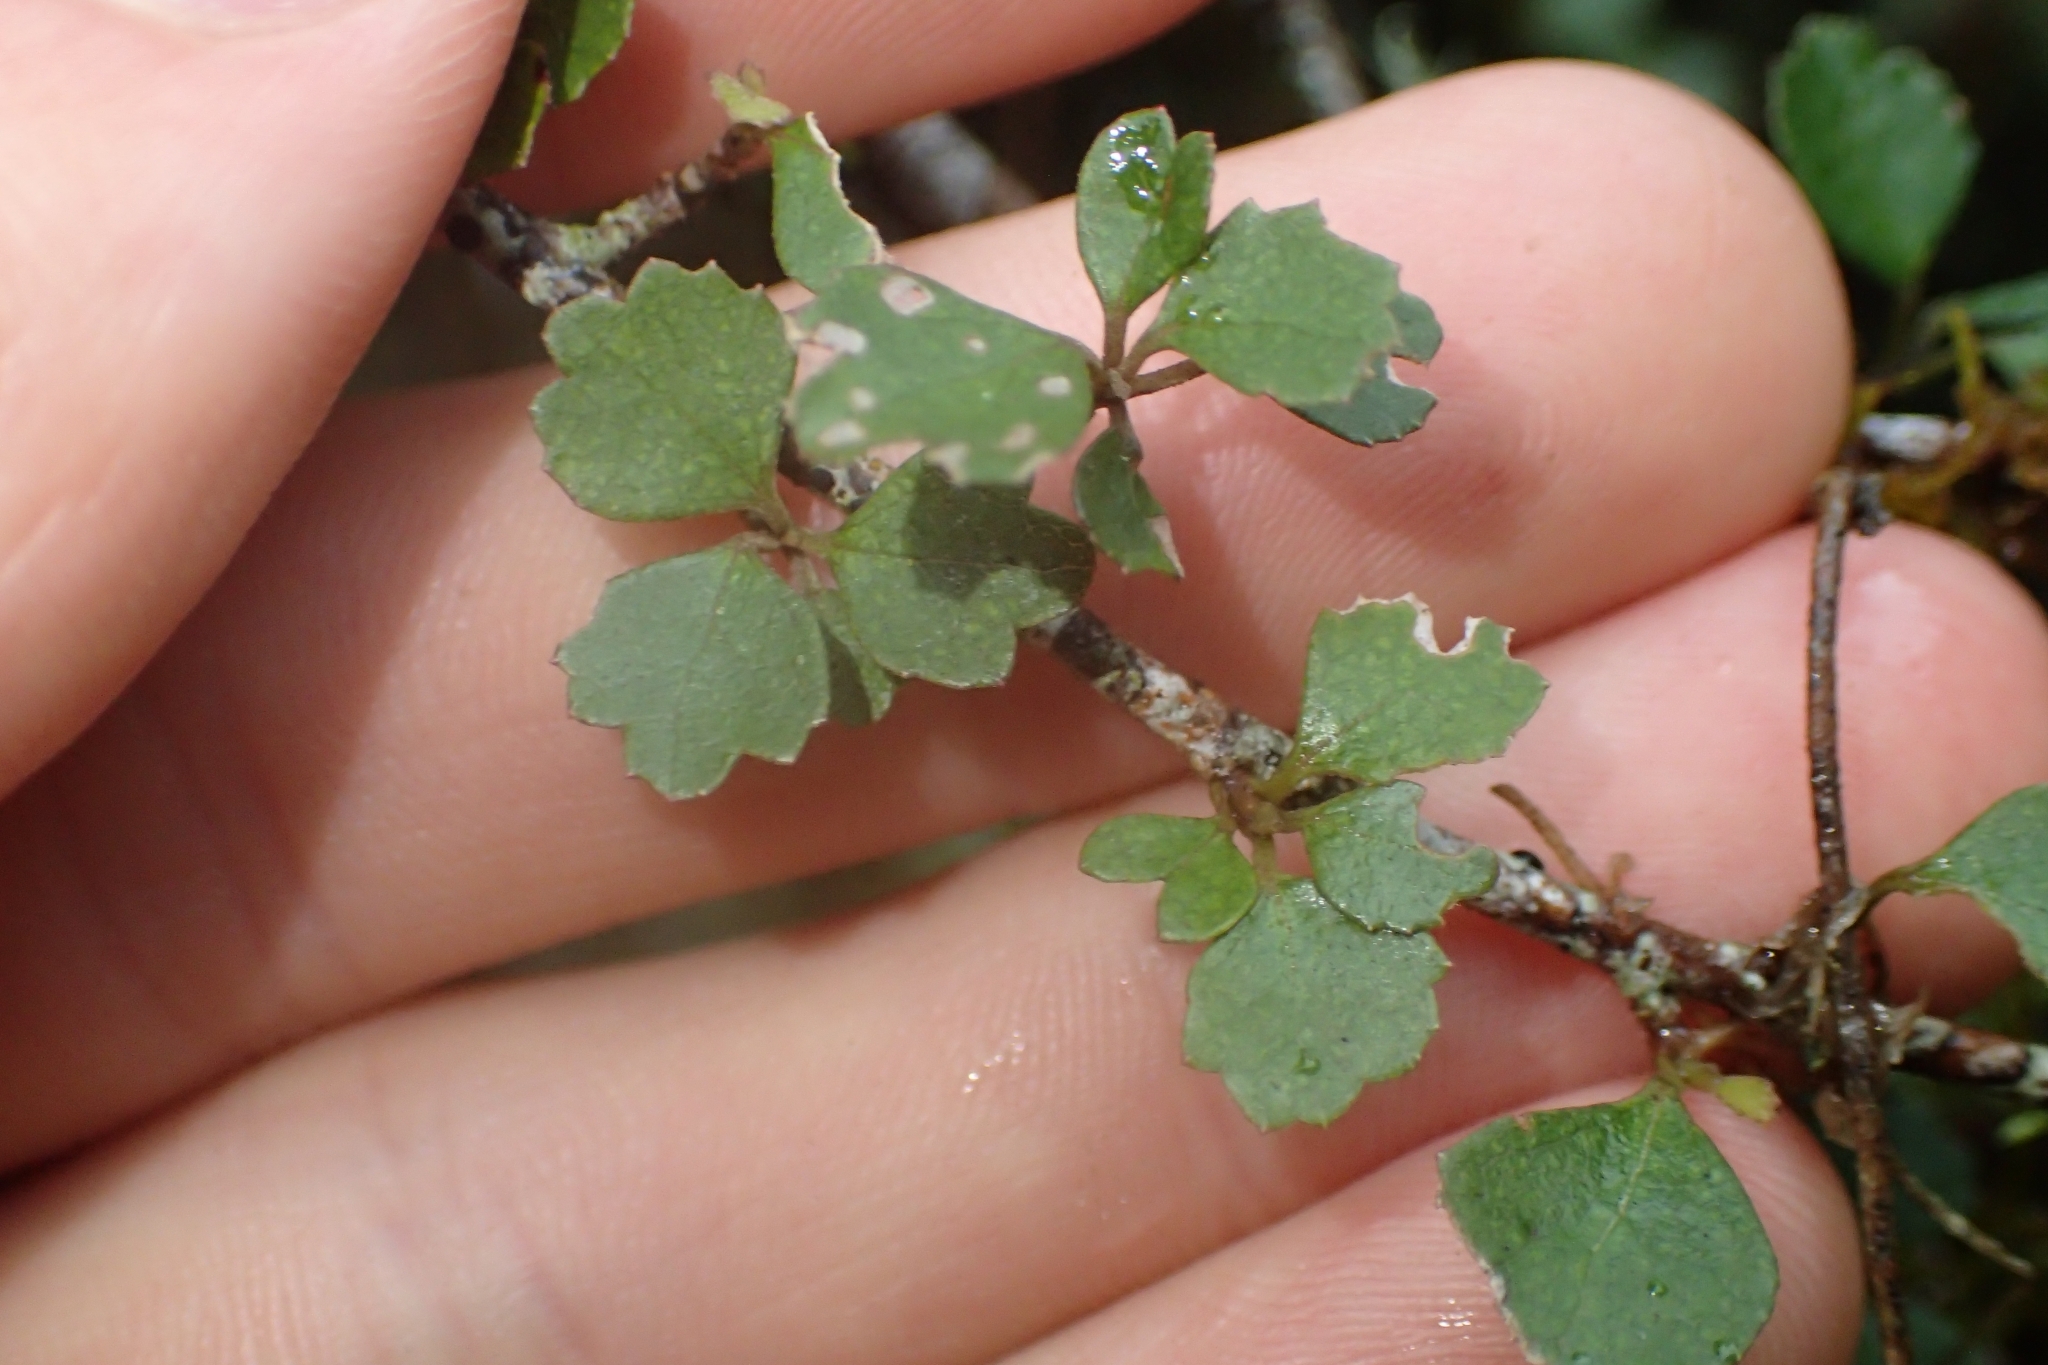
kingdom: Plantae
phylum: Tracheophyta
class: Magnoliopsida
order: Malvales
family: Malvaceae
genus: Hoheria
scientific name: Hoheria sexstylosa
